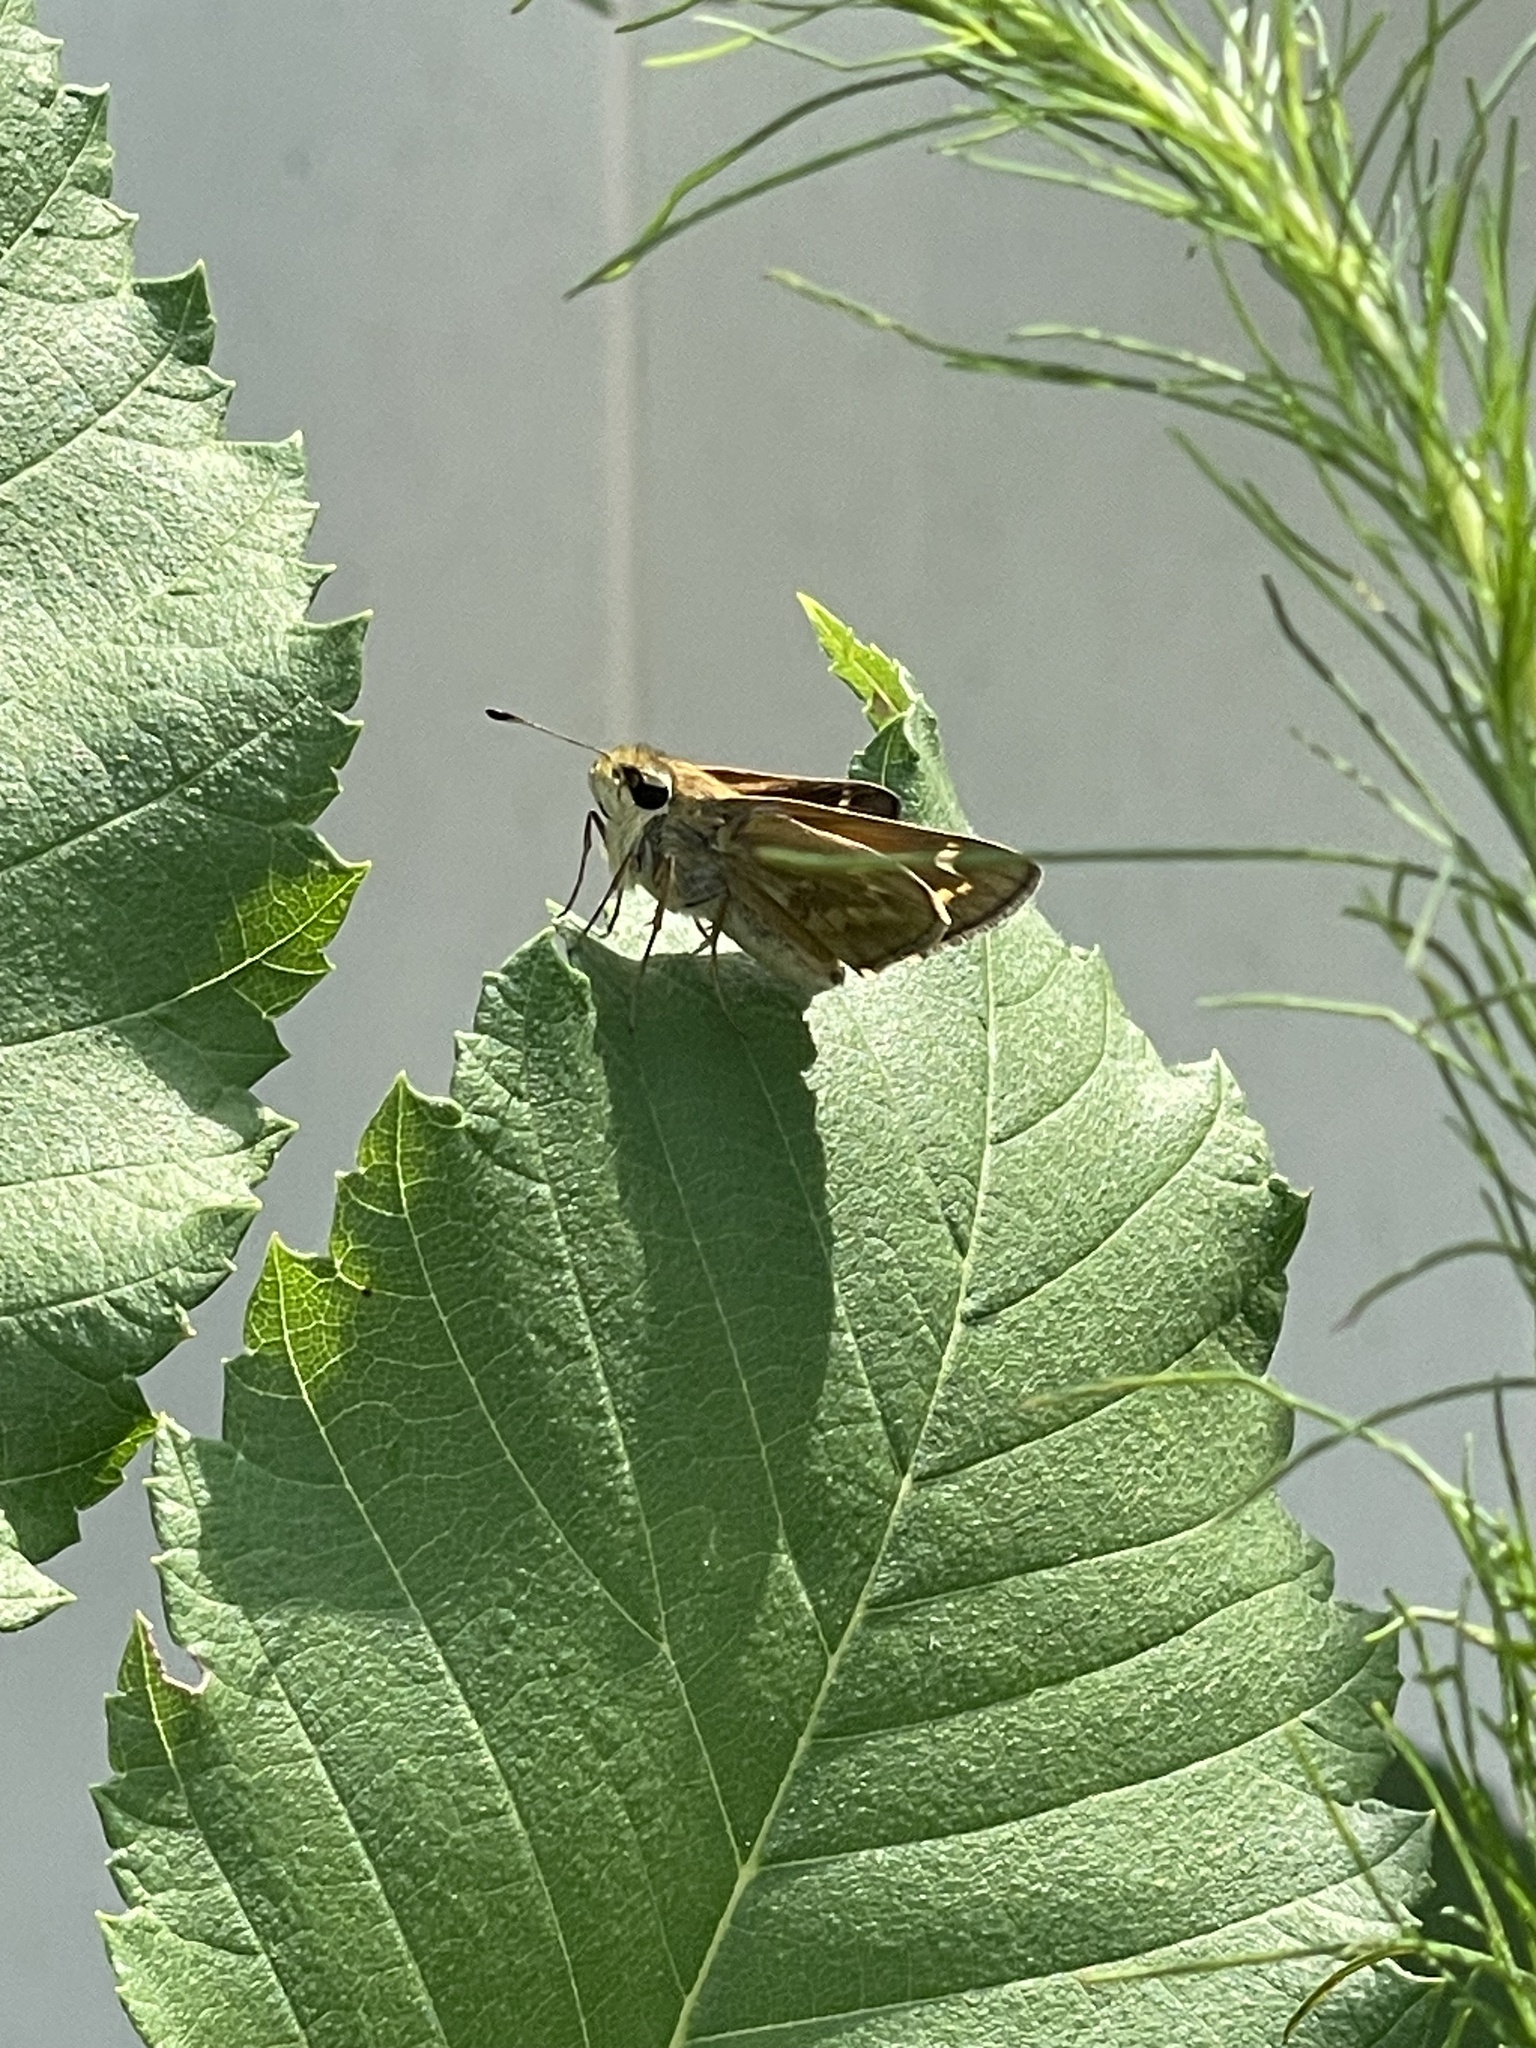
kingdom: Animalia
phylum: Arthropoda
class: Insecta
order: Lepidoptera
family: Hesperiidae
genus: Atalopedes
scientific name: Atalopedes
